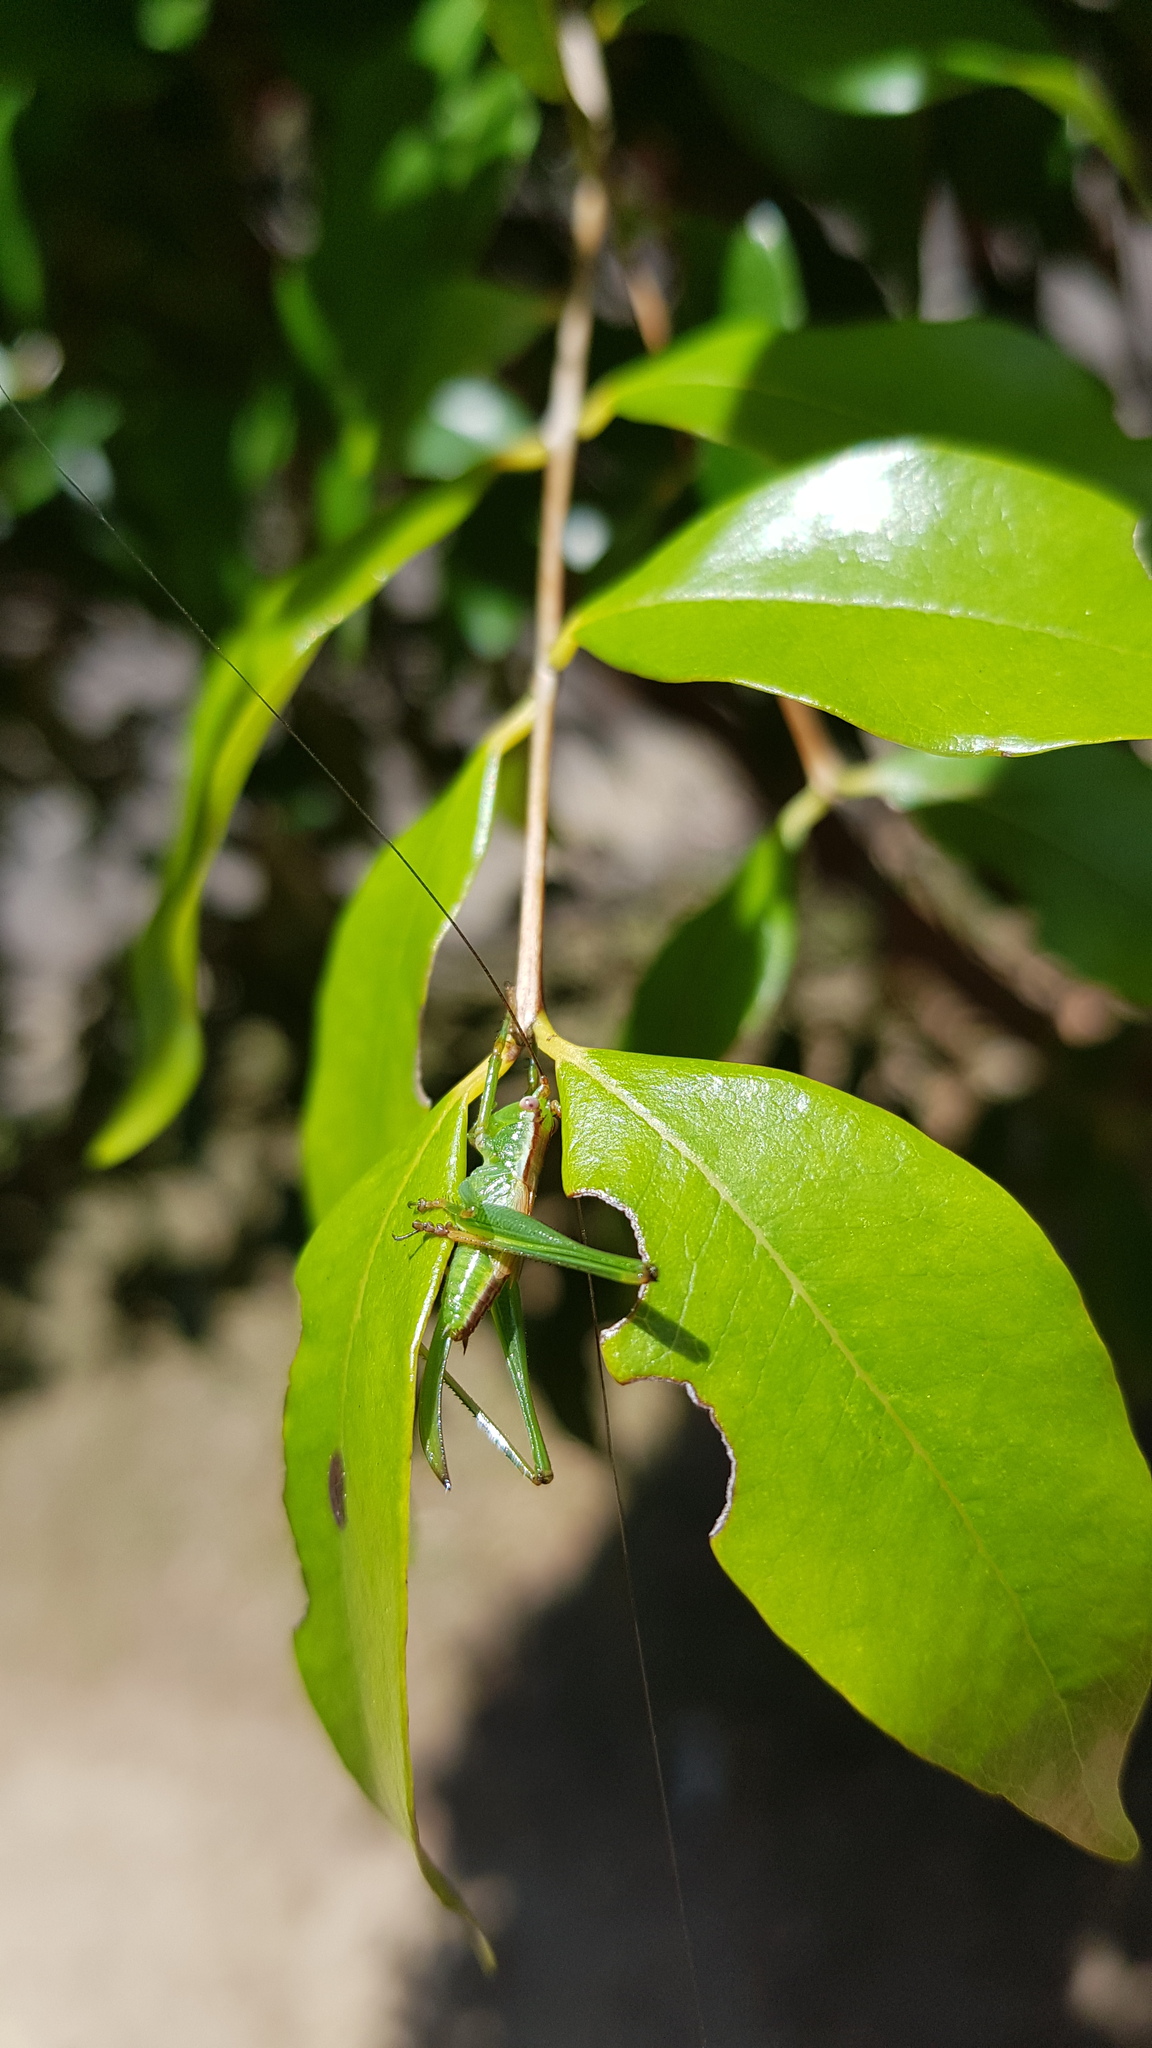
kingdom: Animalia
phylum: Arthropoda
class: Insecta
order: Orthoptera
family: Tettigoniidae
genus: Conocephalomima
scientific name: Conocephalomima barameda
